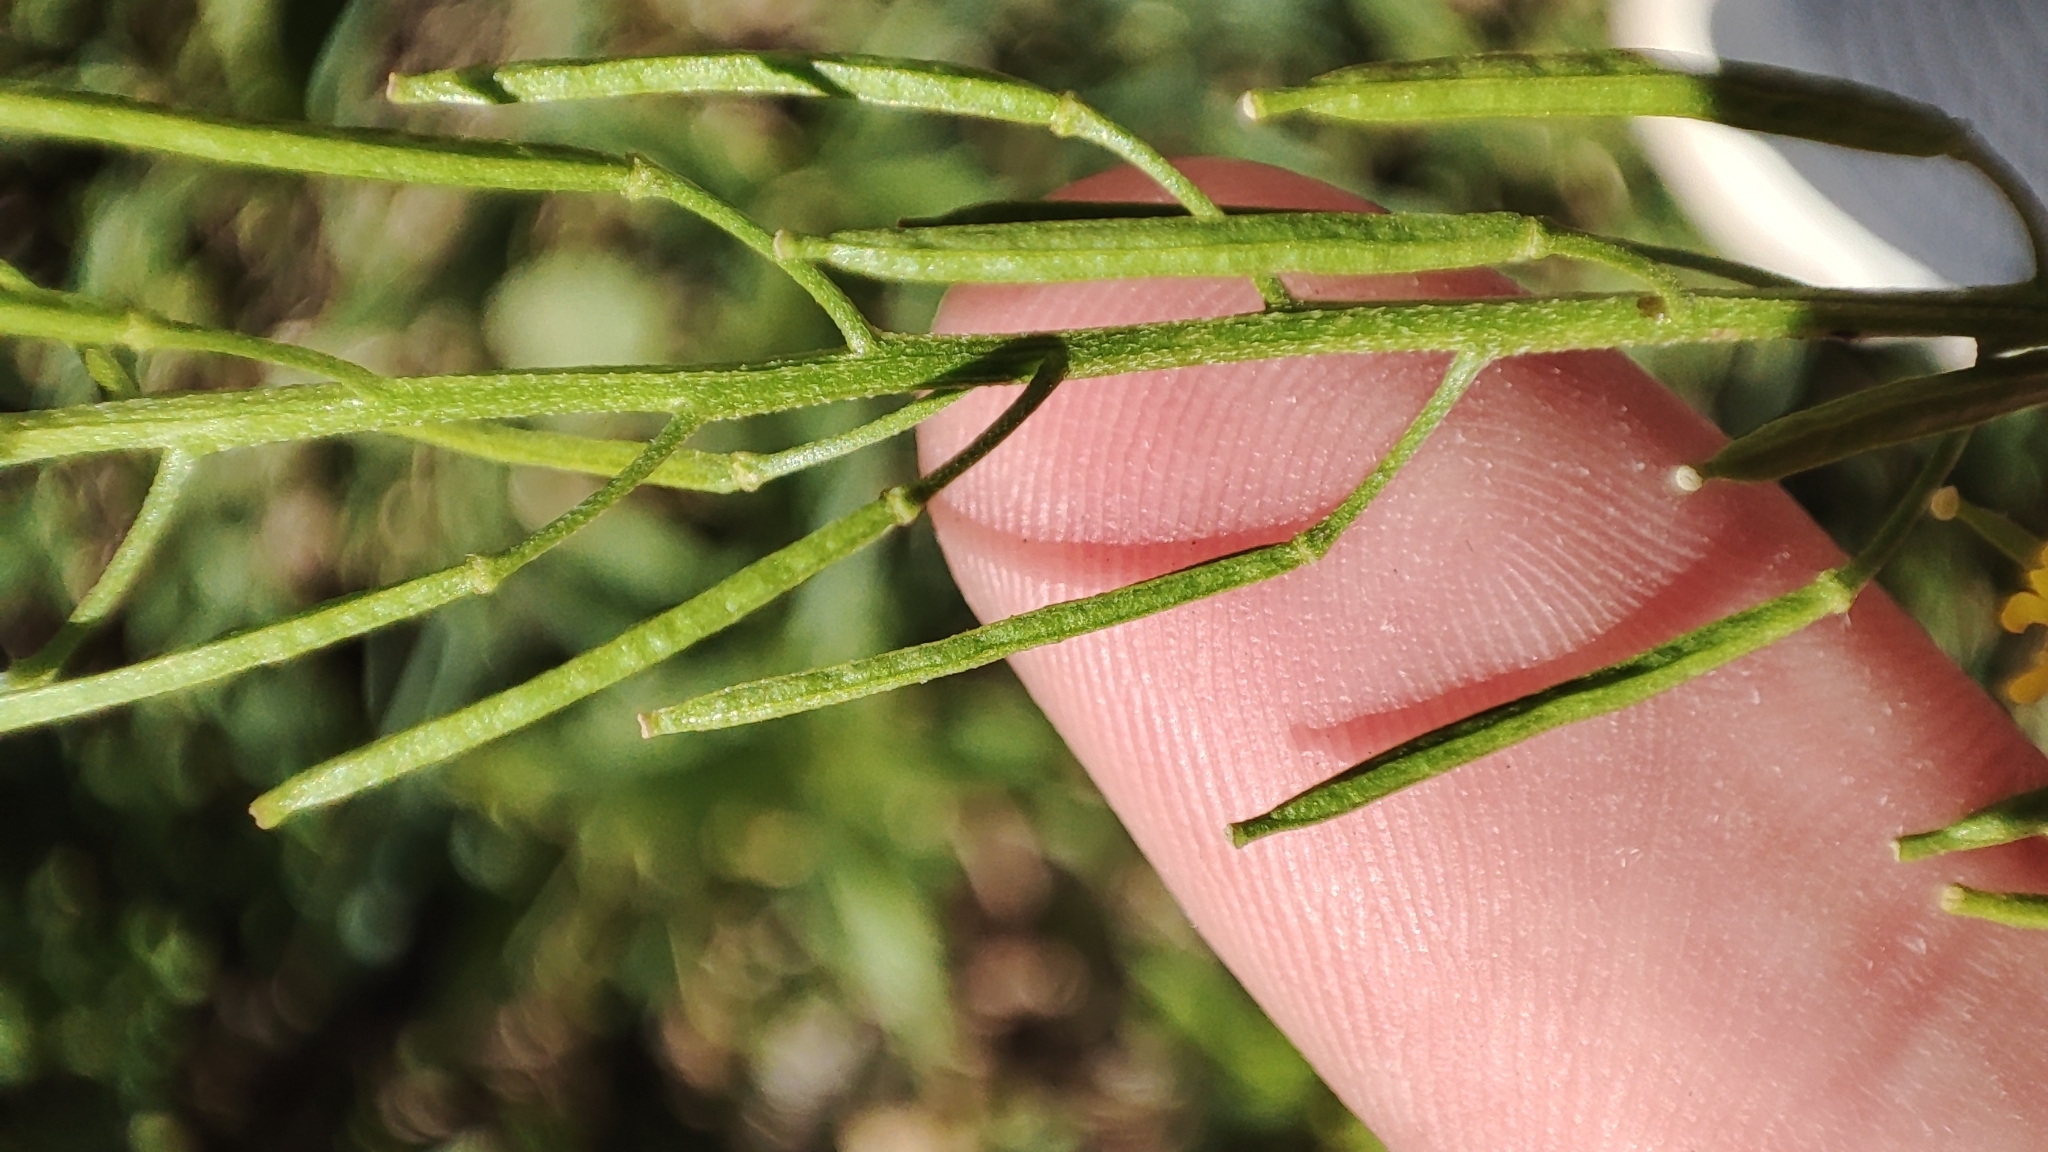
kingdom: Plantae
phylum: Tracheophyta
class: Magnoliopsida
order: Brassicales
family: Brassicaceae
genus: Erysimum
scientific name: Erysimum cheiranthoides
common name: Treacle mustard
